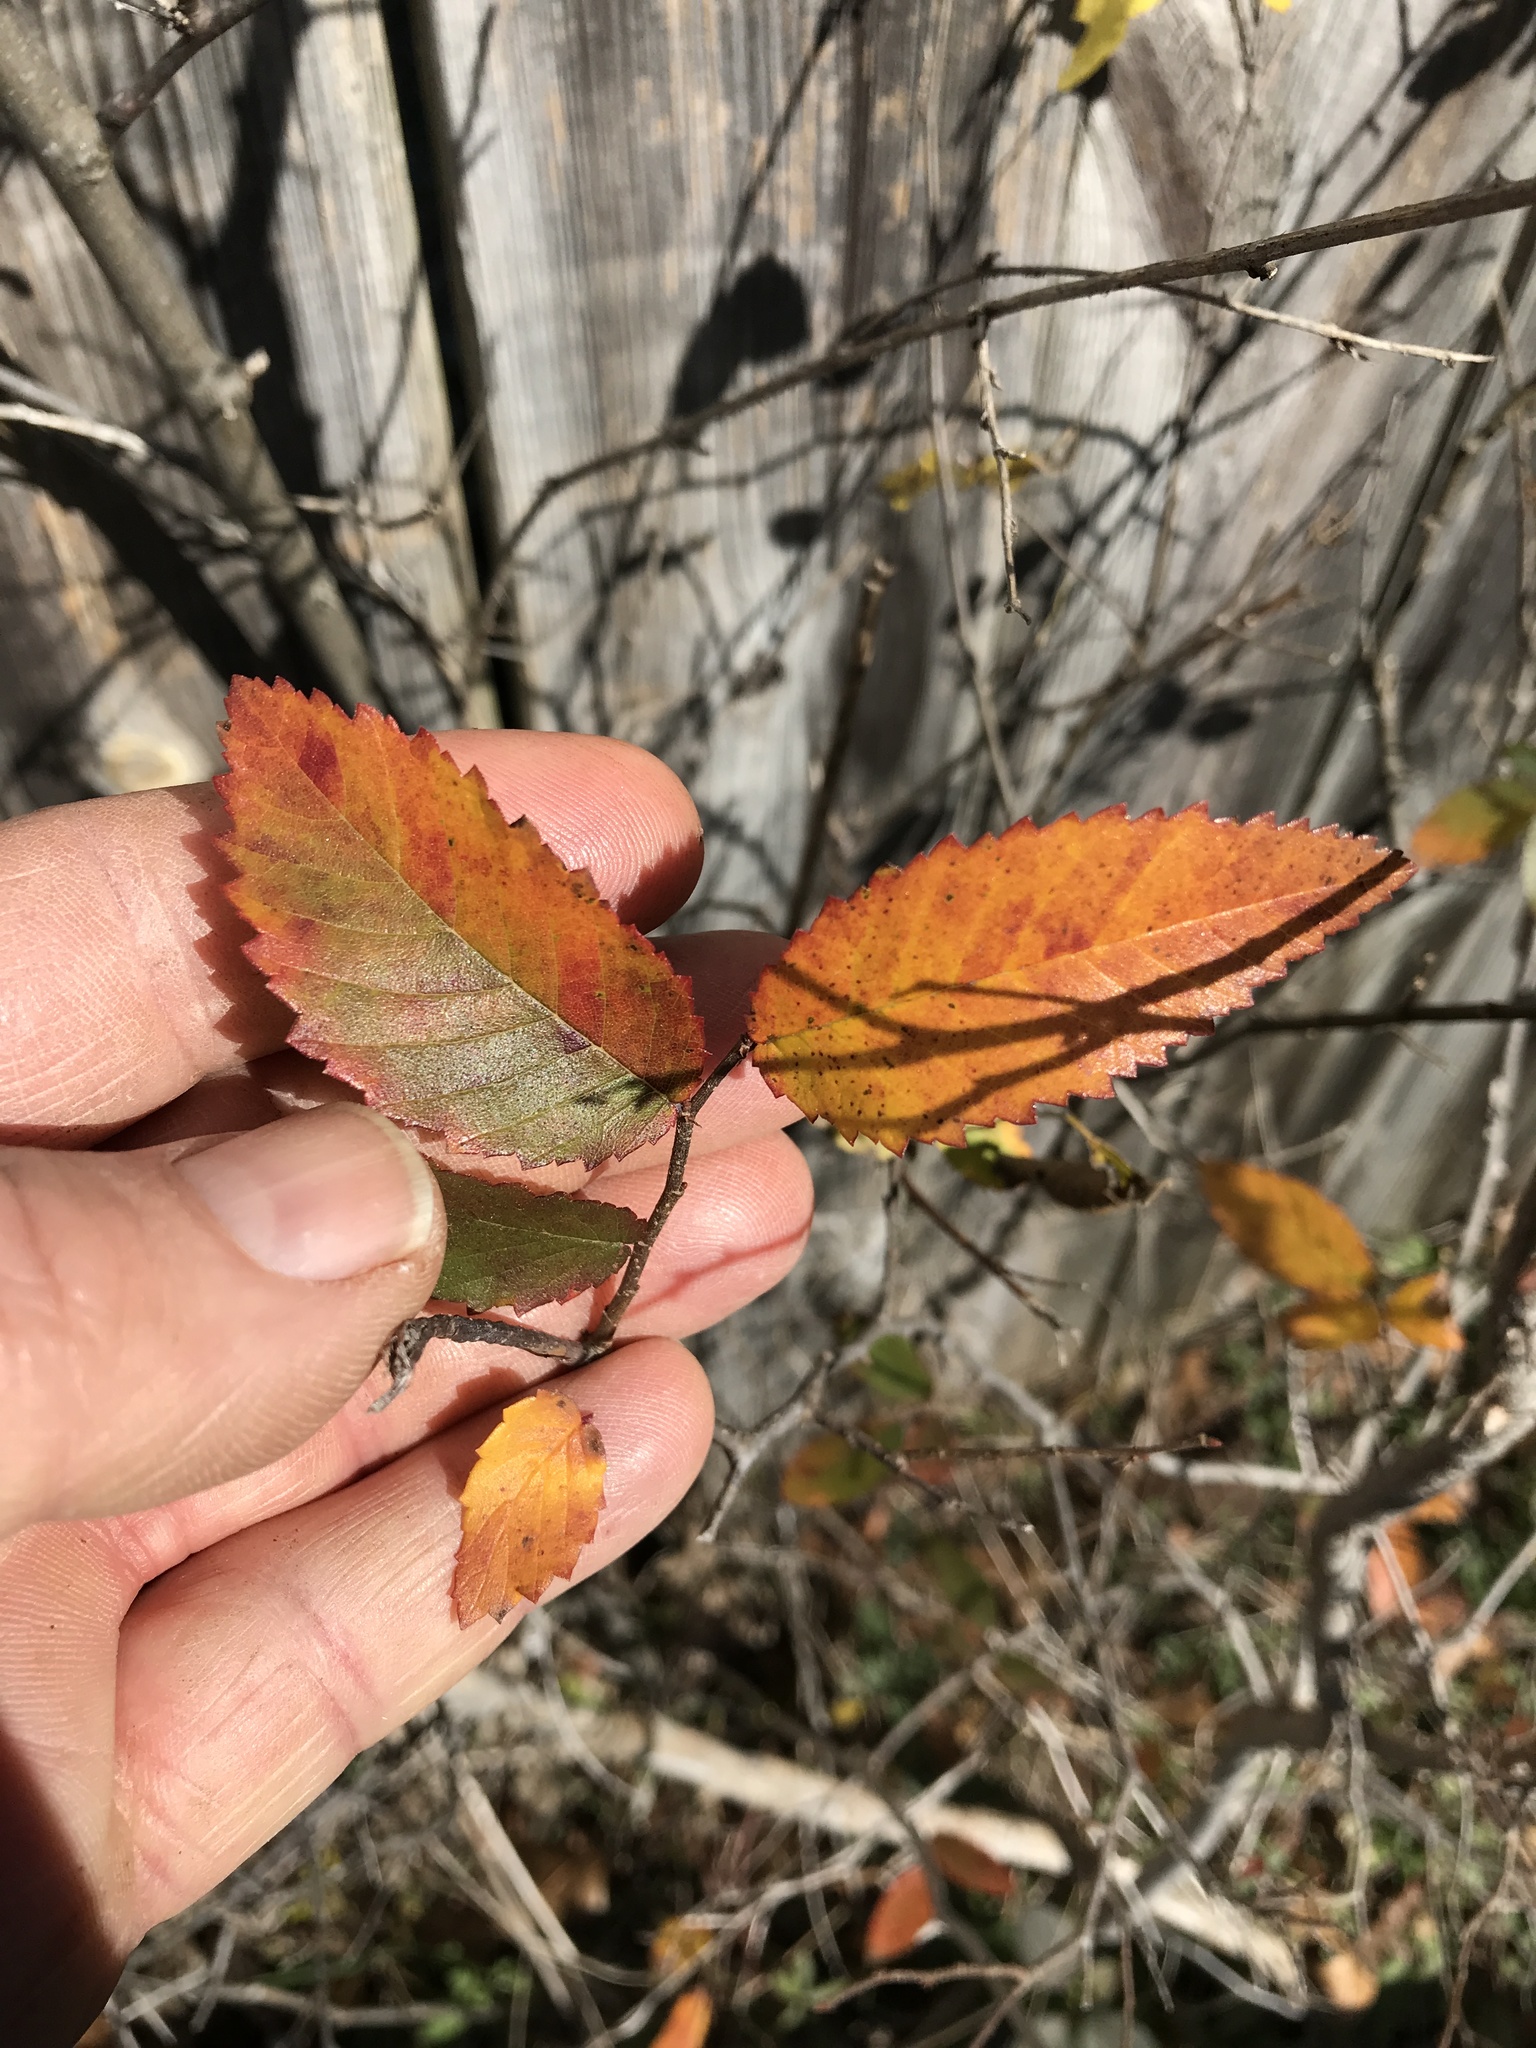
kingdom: Plantae
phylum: Tracheophyta
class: Magnoliopsida
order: Rosales
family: Ulmaceae
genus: Ulmus
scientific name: Ulmus crassifolia
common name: Basket elm
